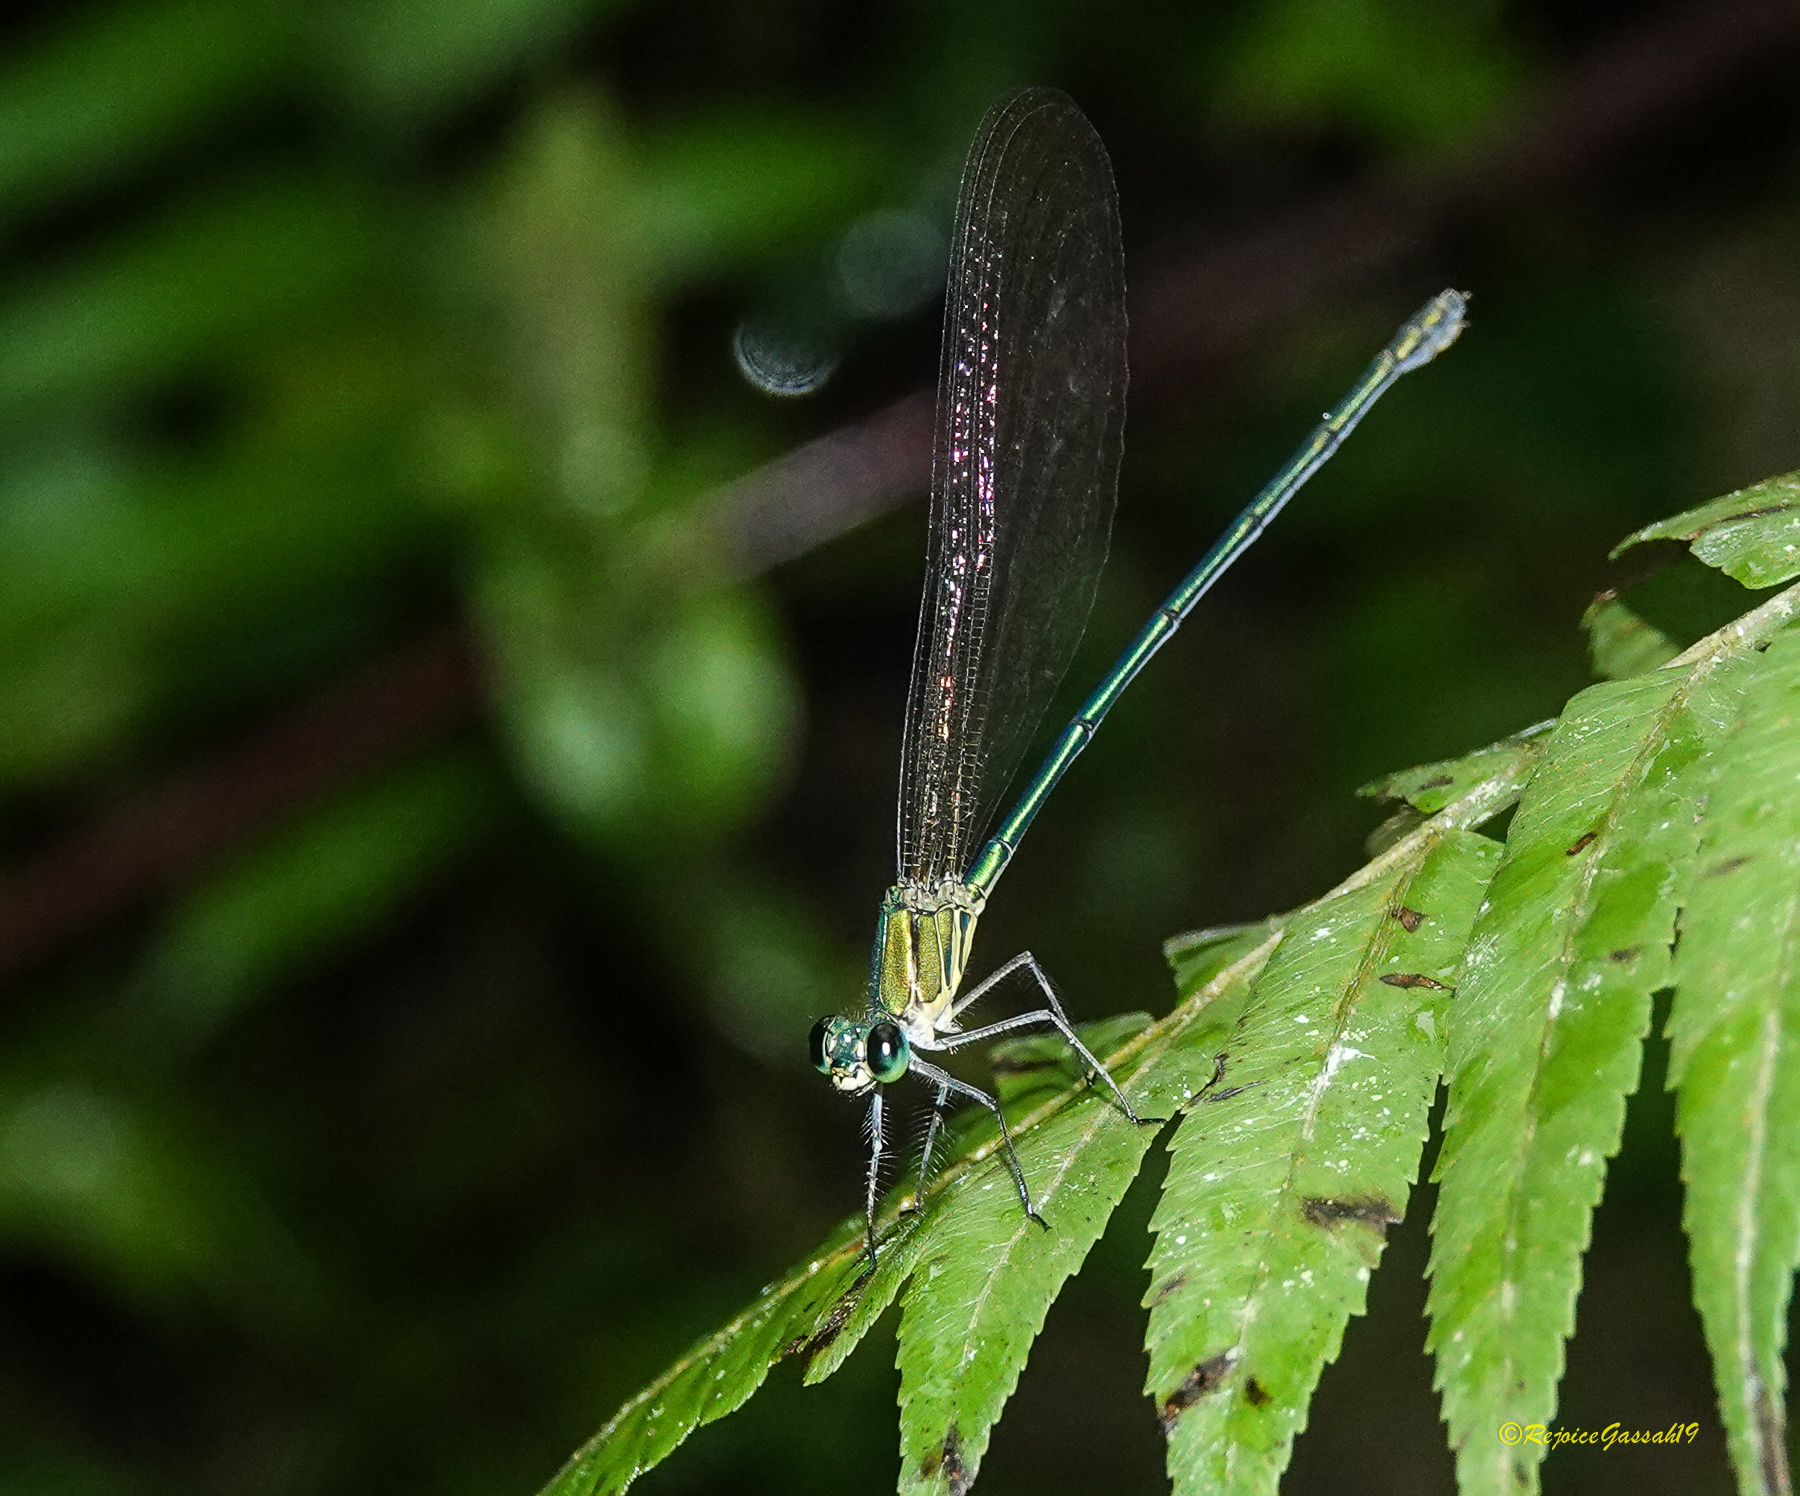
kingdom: Animalia
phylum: Arthropoda
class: Insecta
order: Odonata
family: Calopterygidae
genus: Vestalis
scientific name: Vestalis gracilis
